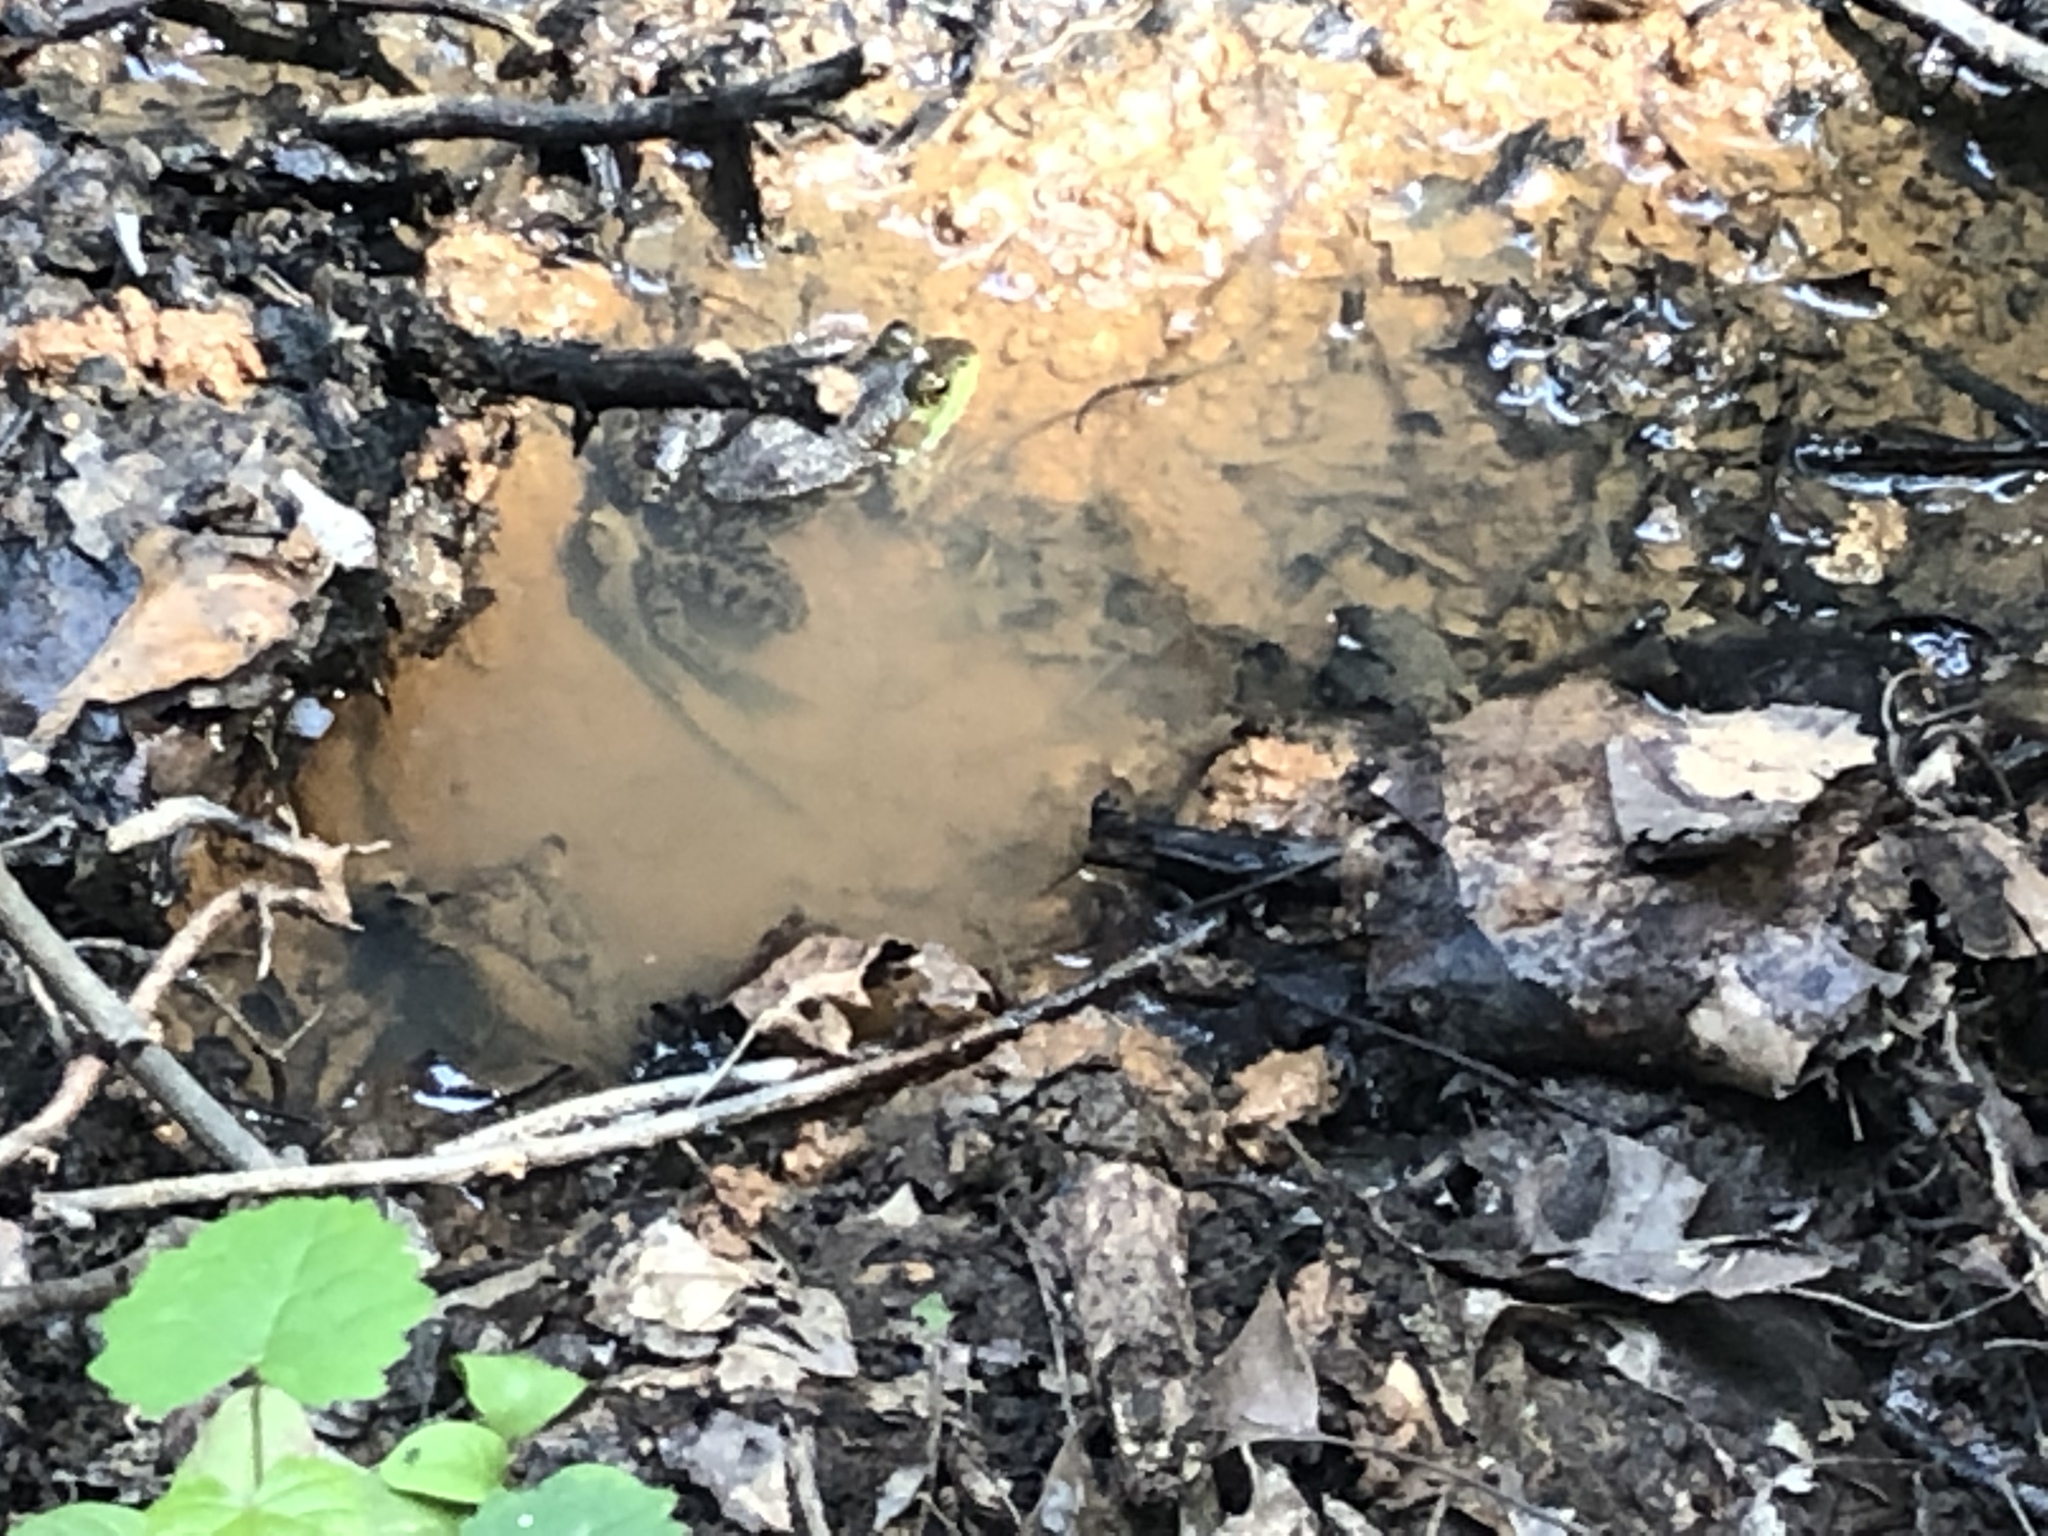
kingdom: Animalia
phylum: Chordata
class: Amphibia
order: Anura
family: Ranidae
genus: Lithobates
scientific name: Lithobates clamitans
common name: Green frog
